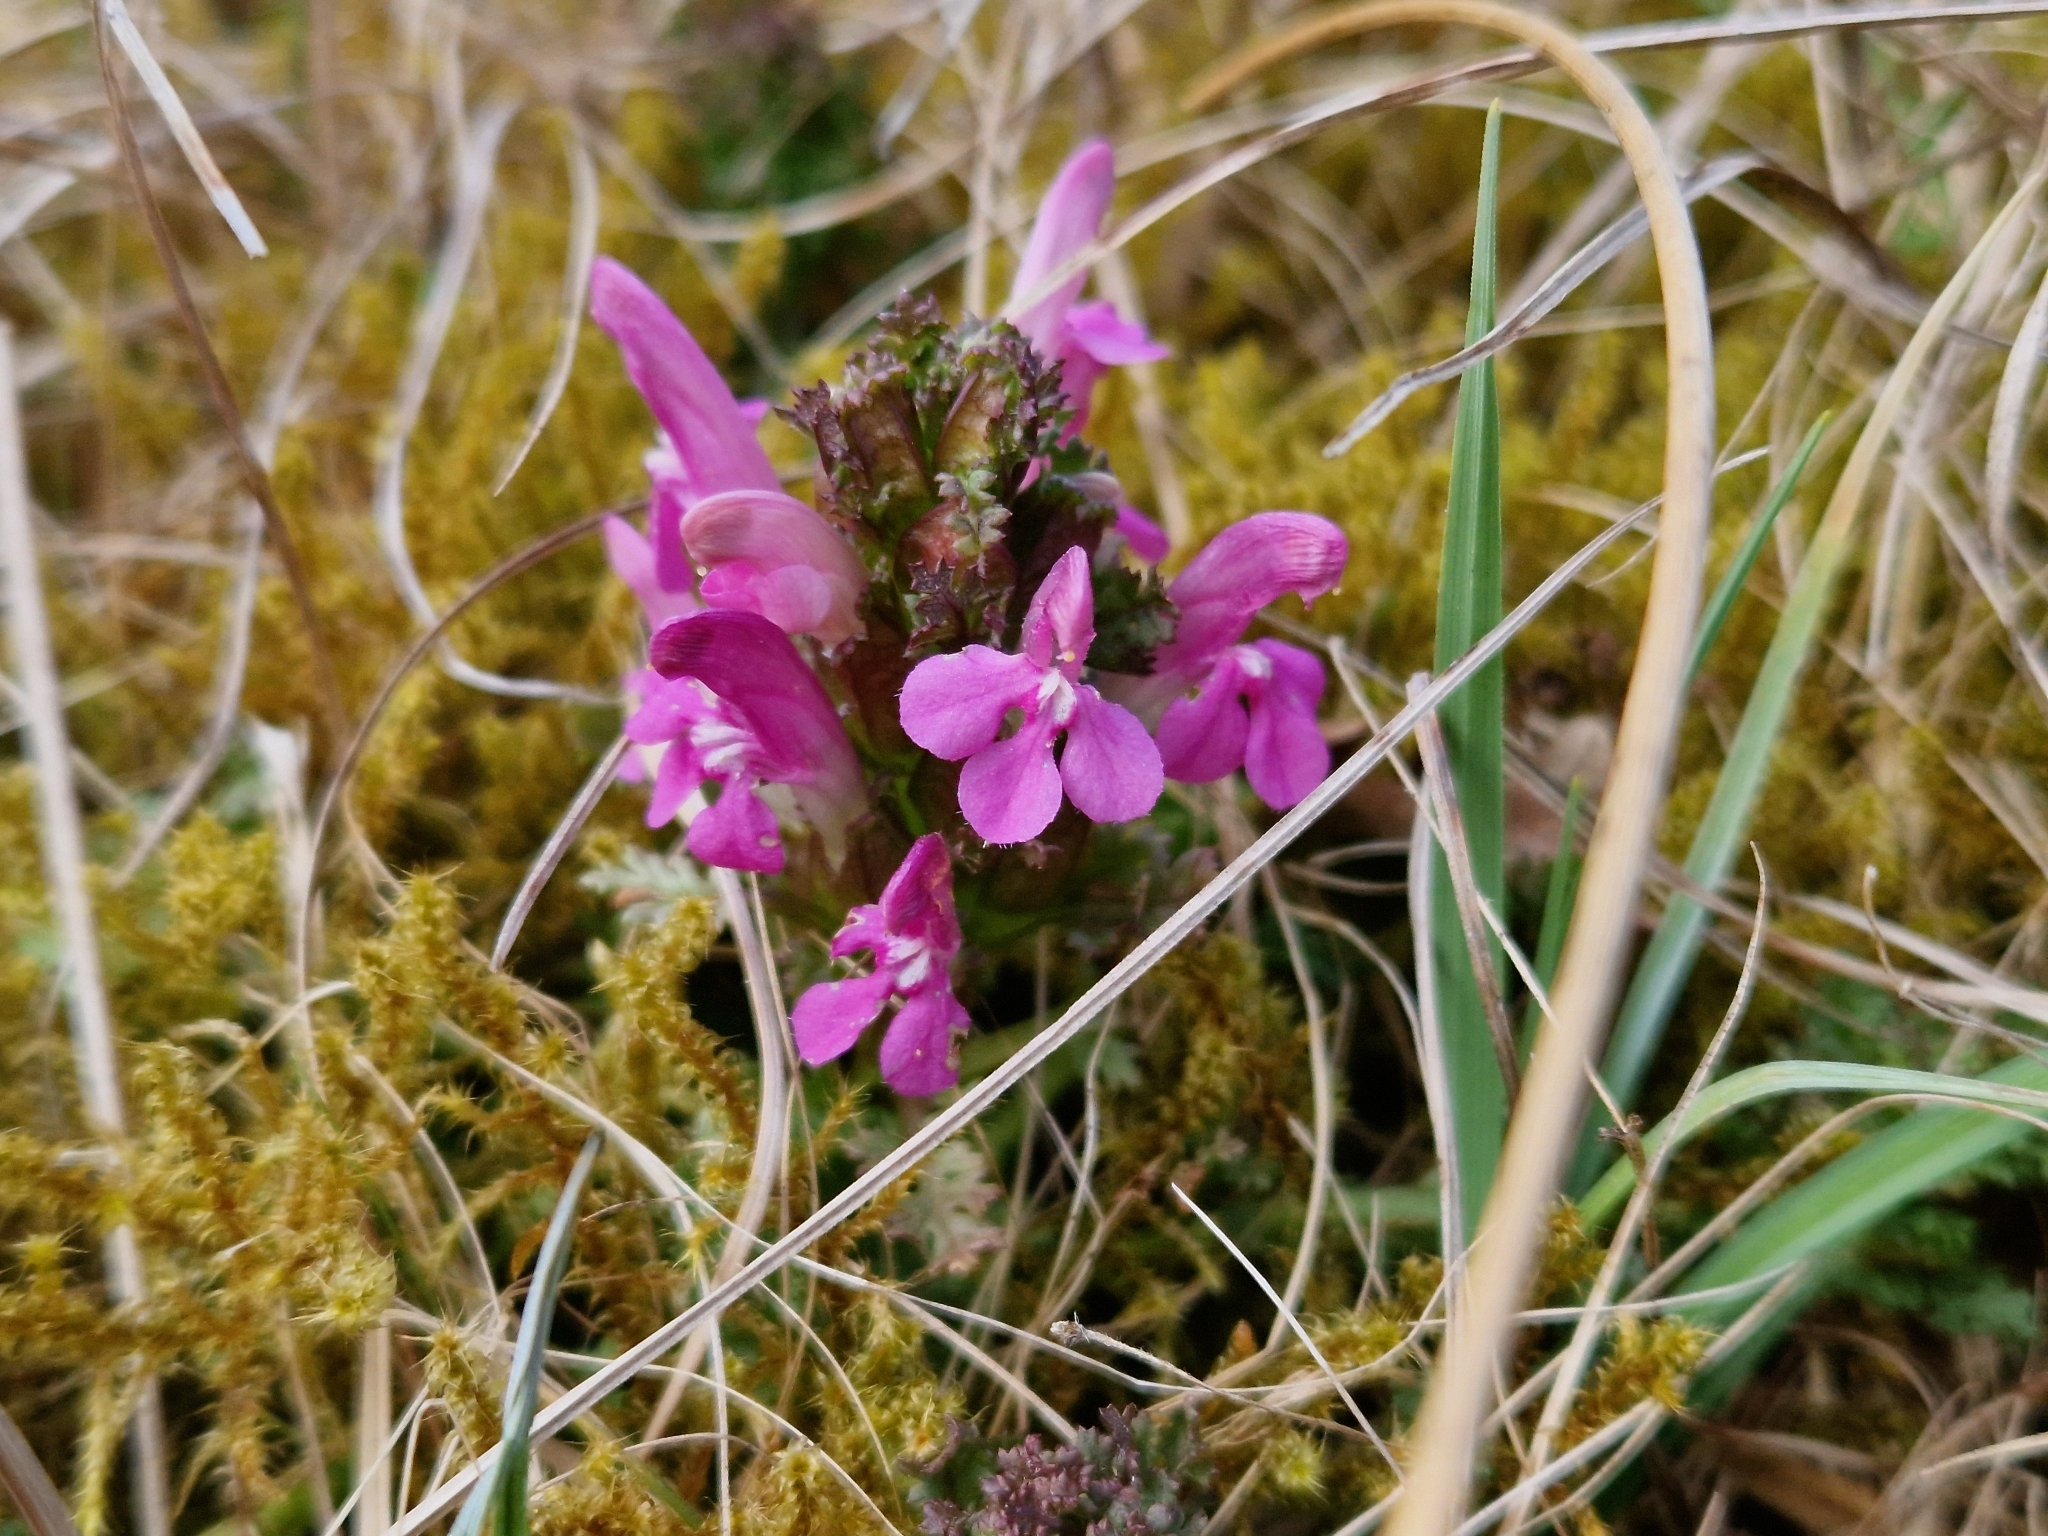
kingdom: Plantae
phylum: Tracheophyta
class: Magnoliopsida
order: Lamiales
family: Orobanchaceae
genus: Pedicularis
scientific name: Pedicularis sylvatica
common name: Lousewort
